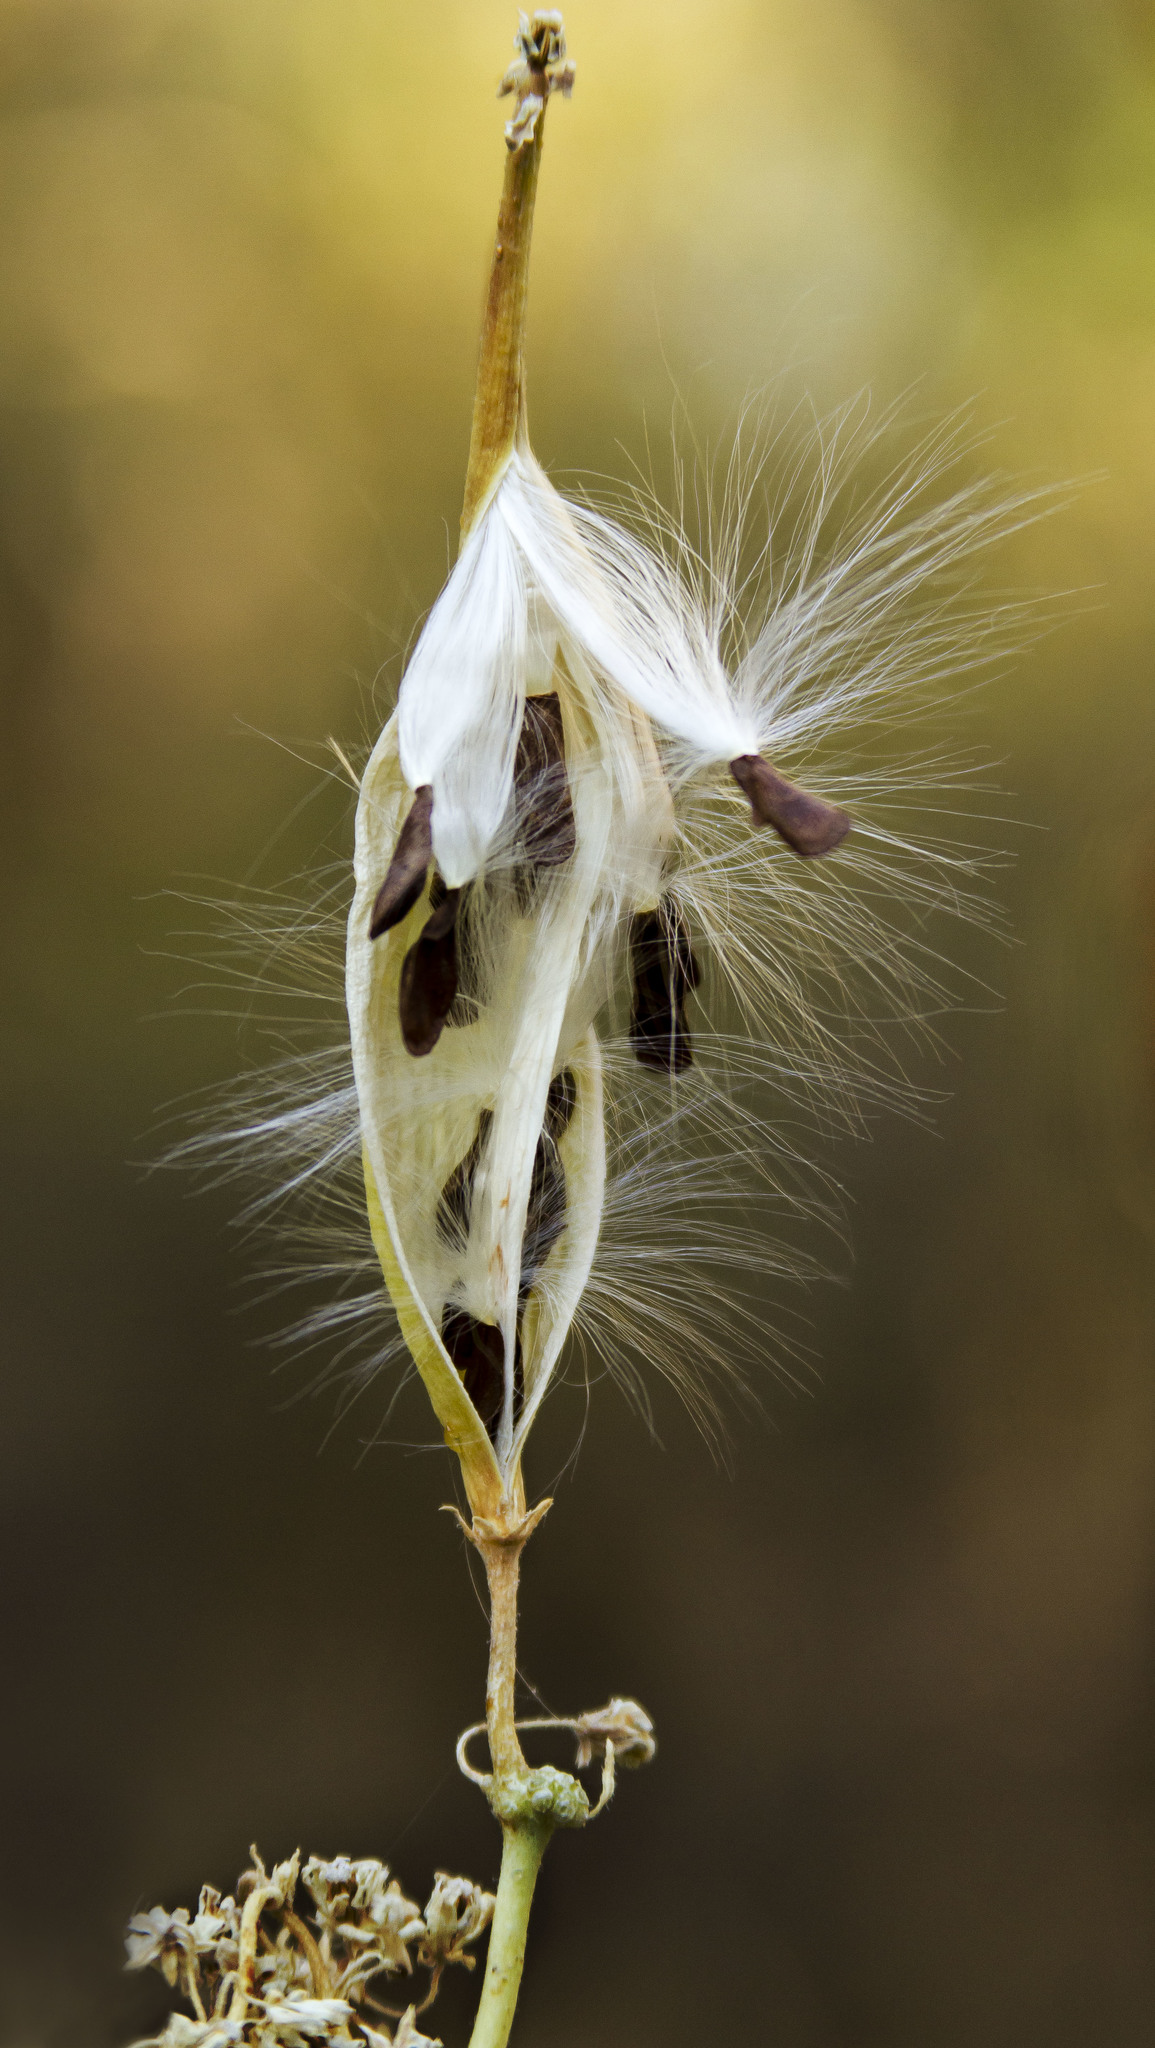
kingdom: Plantae
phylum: Tracheophyta
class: Magnoliopsida
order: Gentianales
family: Apocynaceae
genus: Asclepias
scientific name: Asclepias fascicularis
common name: Mexican milkweed
